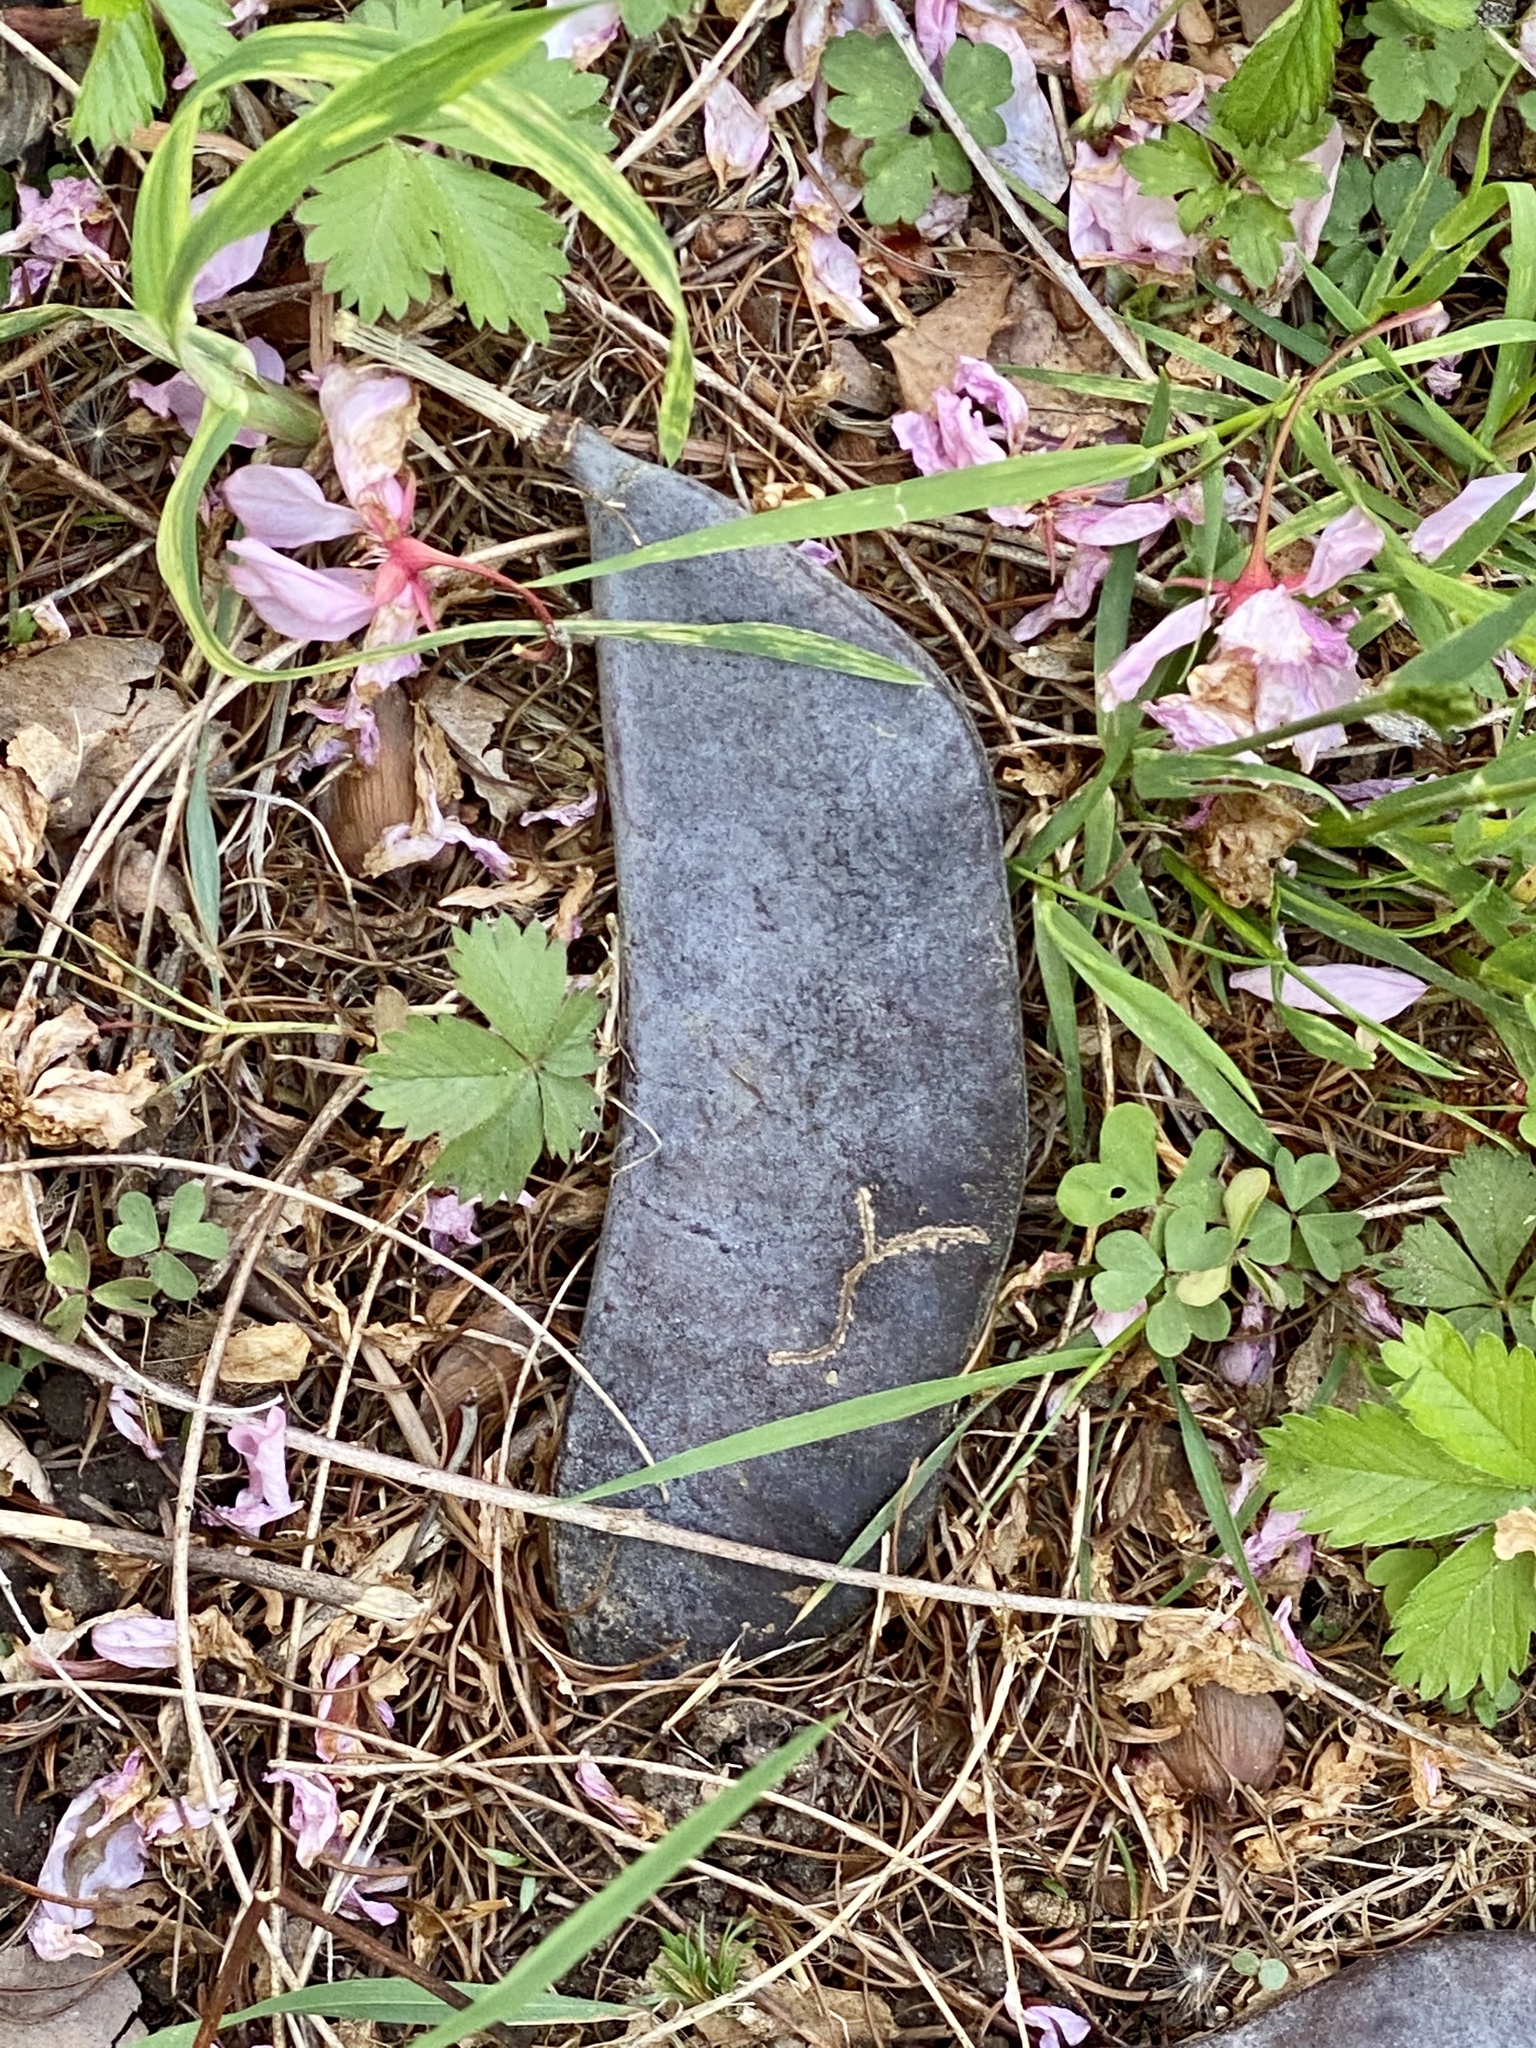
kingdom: Plantae
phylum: Tracheophyta
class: Magnoliopsida
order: Fabales
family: Fabaceae
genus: Gymnocladus
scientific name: Gymnocladus dioicus
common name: Kentucky coffee-tree
